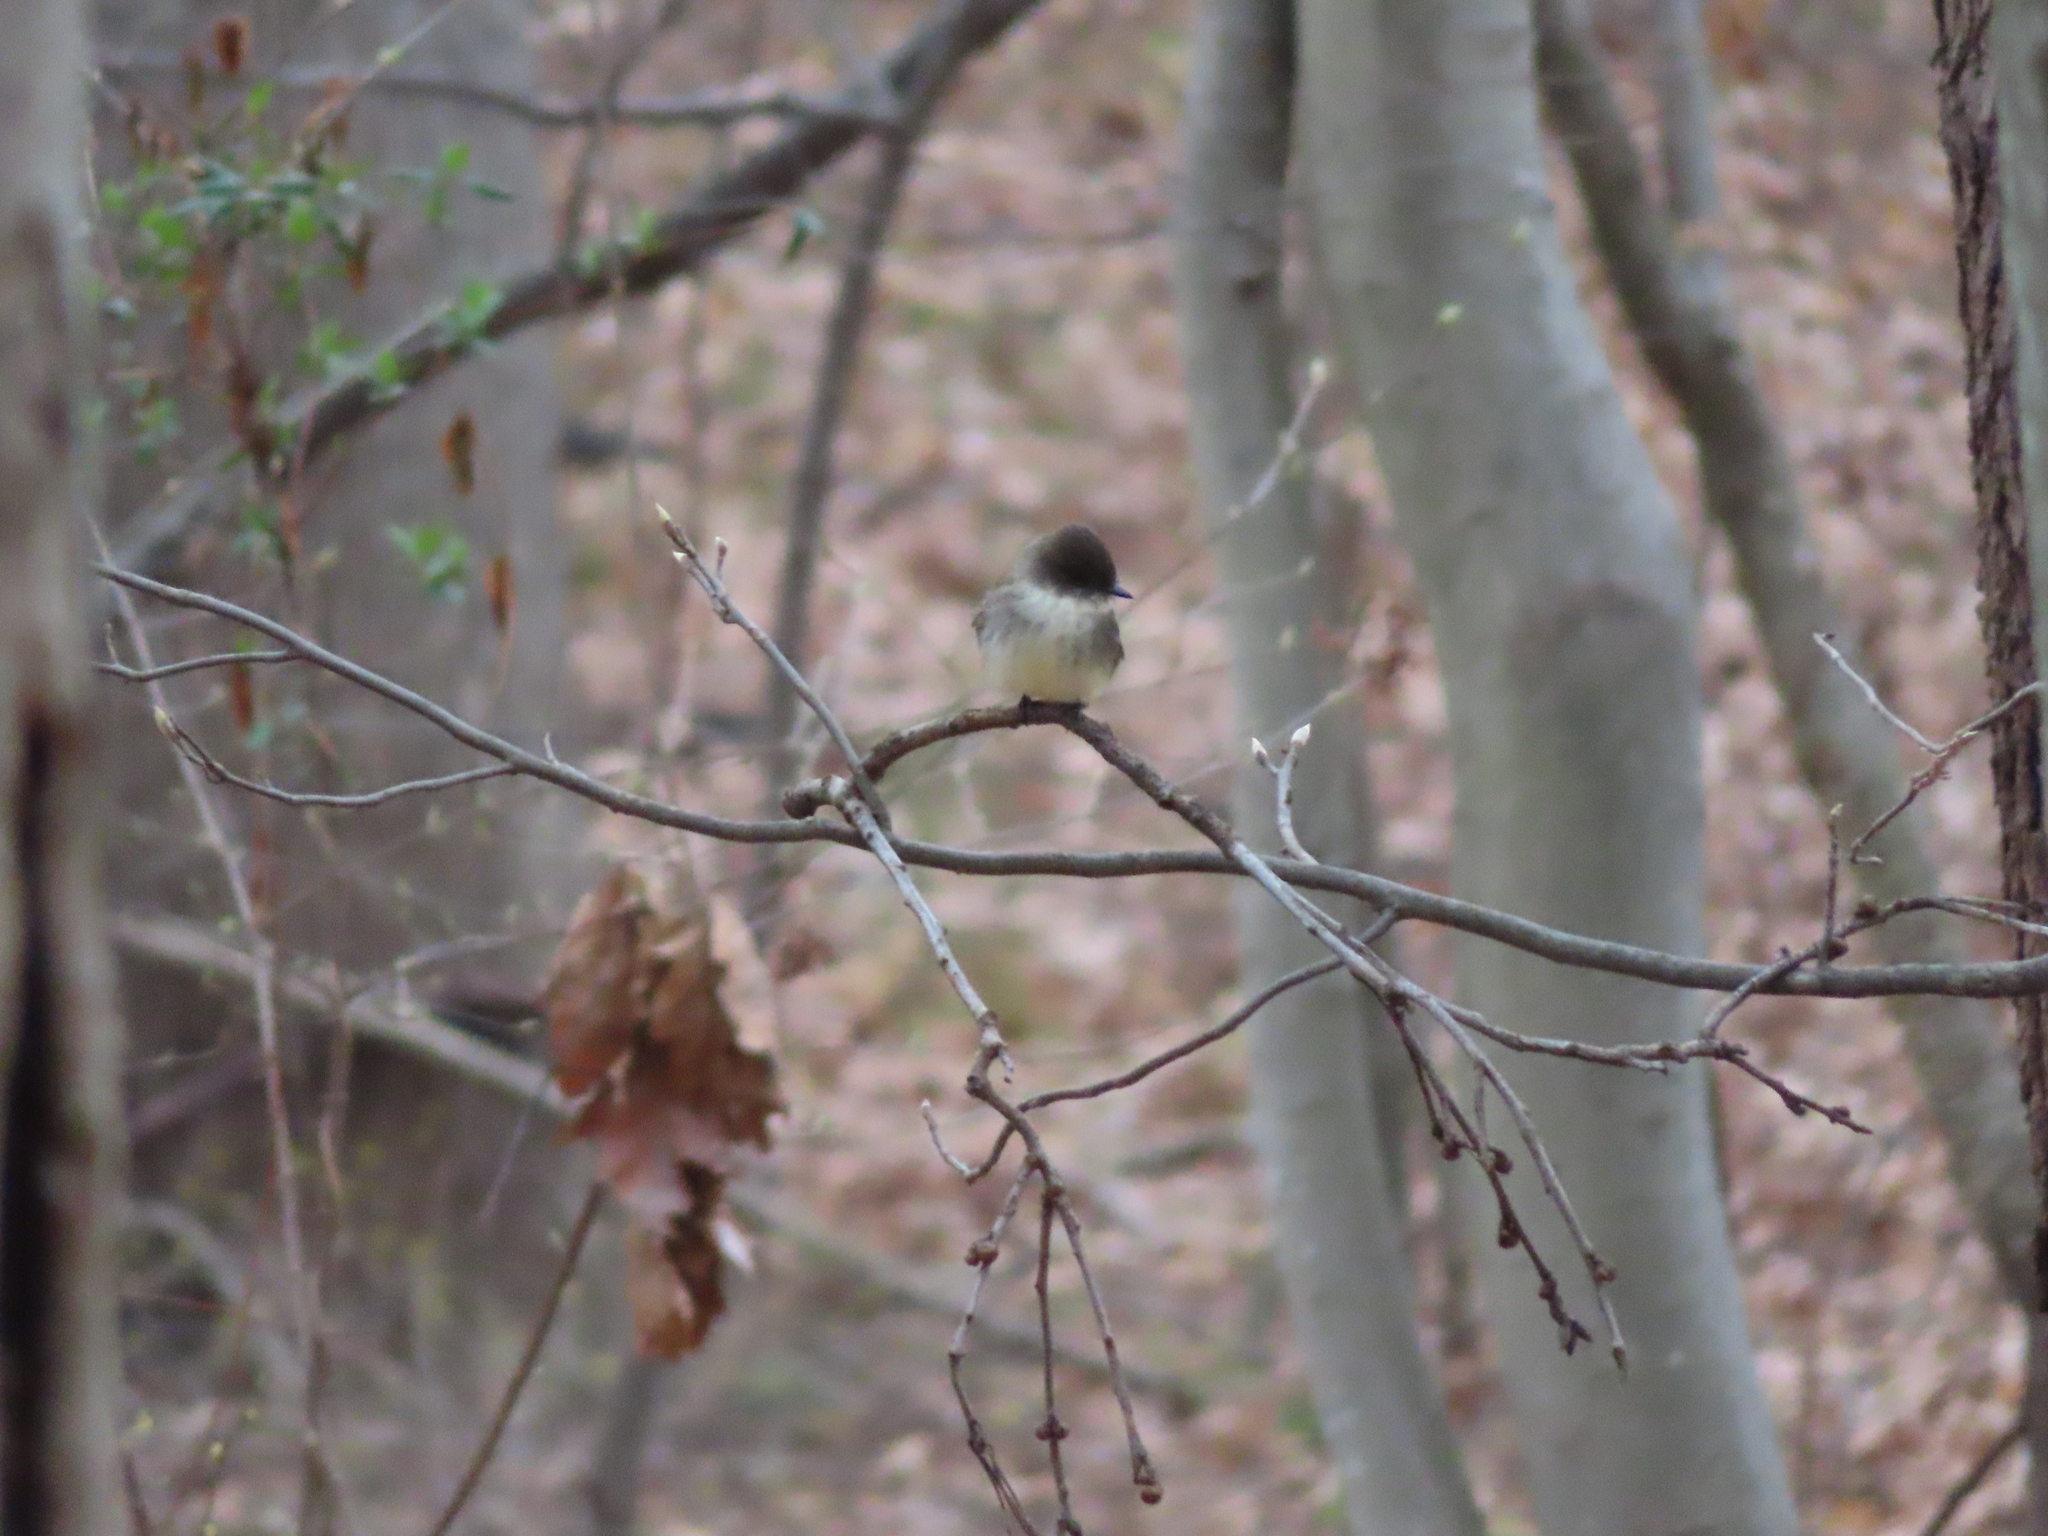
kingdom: Animalia
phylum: Chordata
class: Aves
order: Passeriformes
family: Tyrannidae
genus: Sayornis
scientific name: Sayornis phoebe
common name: Eastern phoebe
